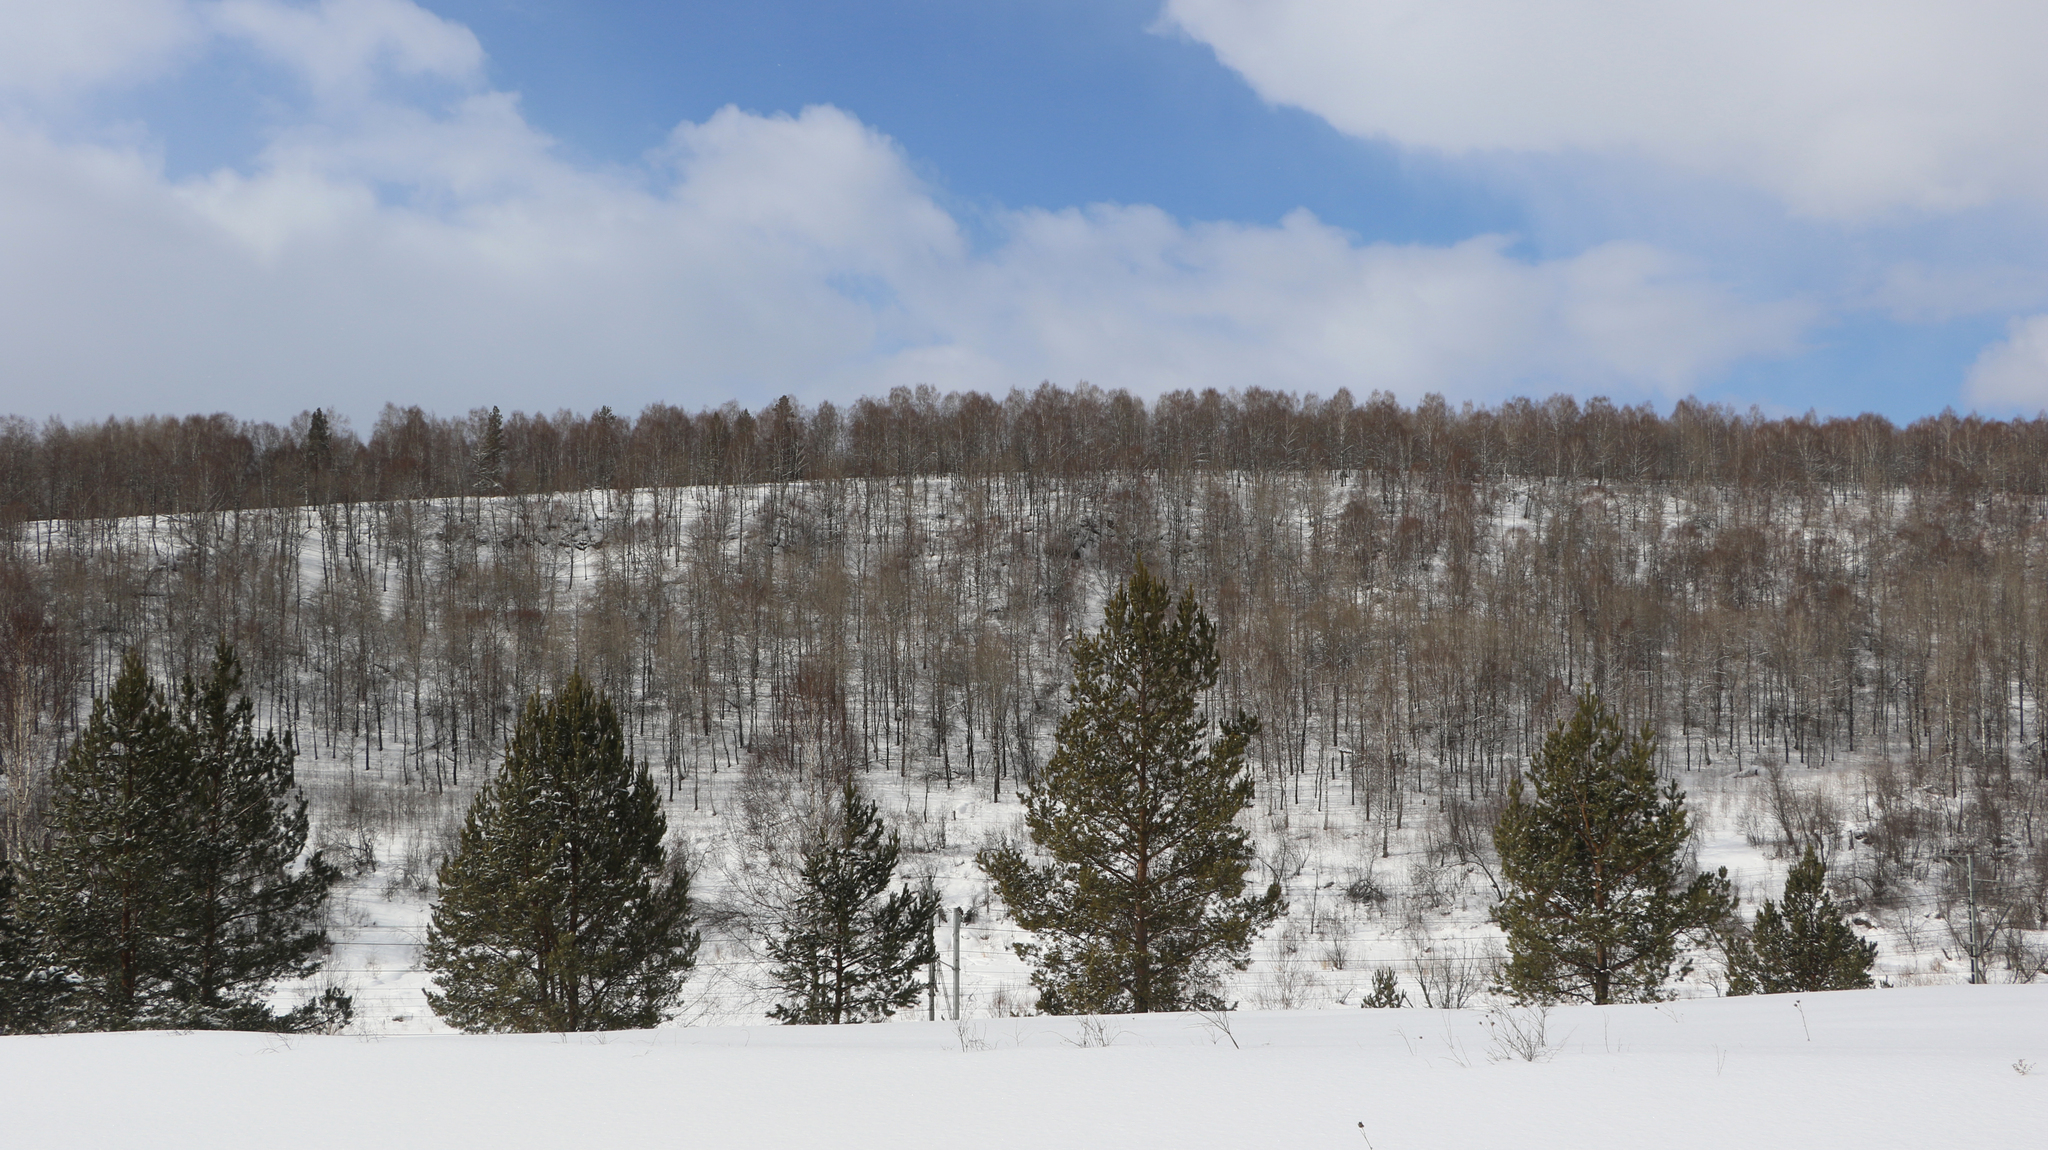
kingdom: Plantae
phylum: Tracheophyta
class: Pinopsida
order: Pinales
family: Pinaceae
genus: Pinus
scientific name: Pinus sylvestris
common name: Scots pine
